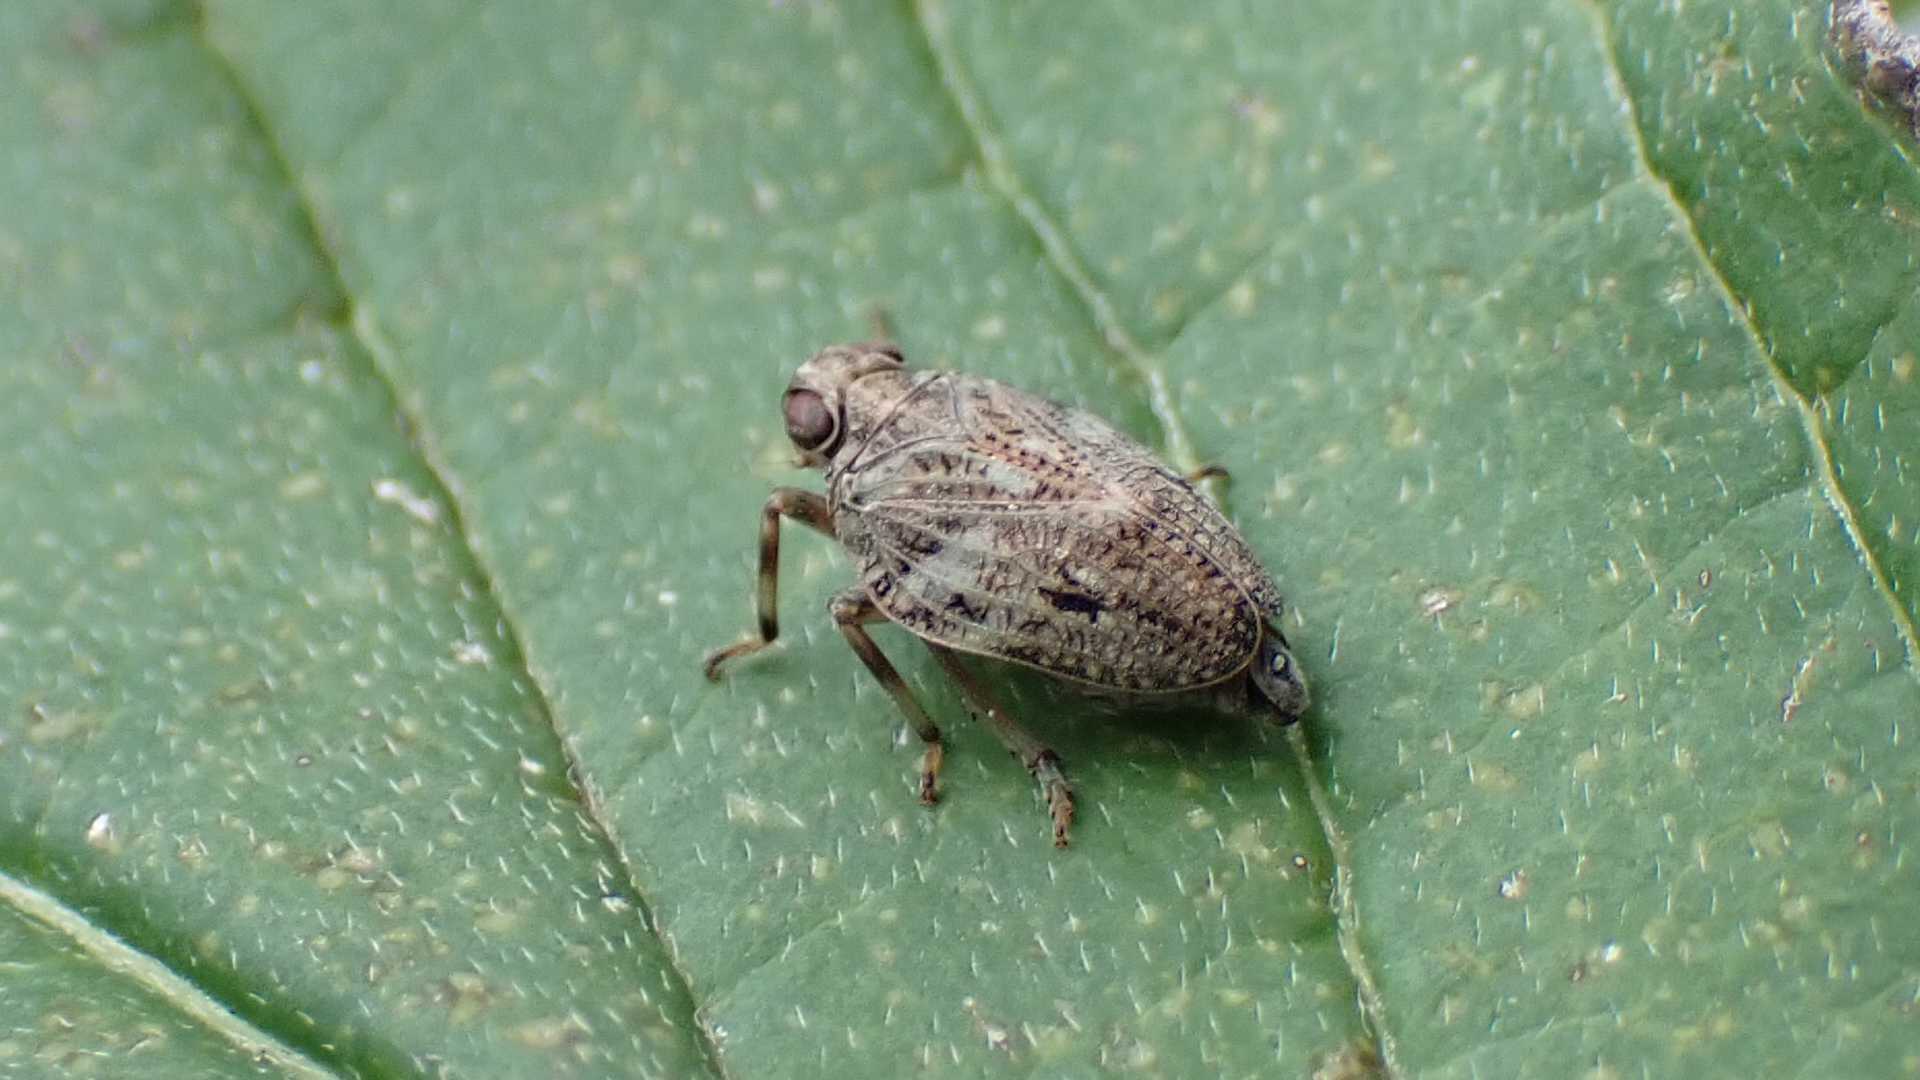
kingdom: Animalia
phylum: Arthropoda
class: Insecta
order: Hemiptera
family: Issidae
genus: Issus
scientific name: Issus coleoptratus
